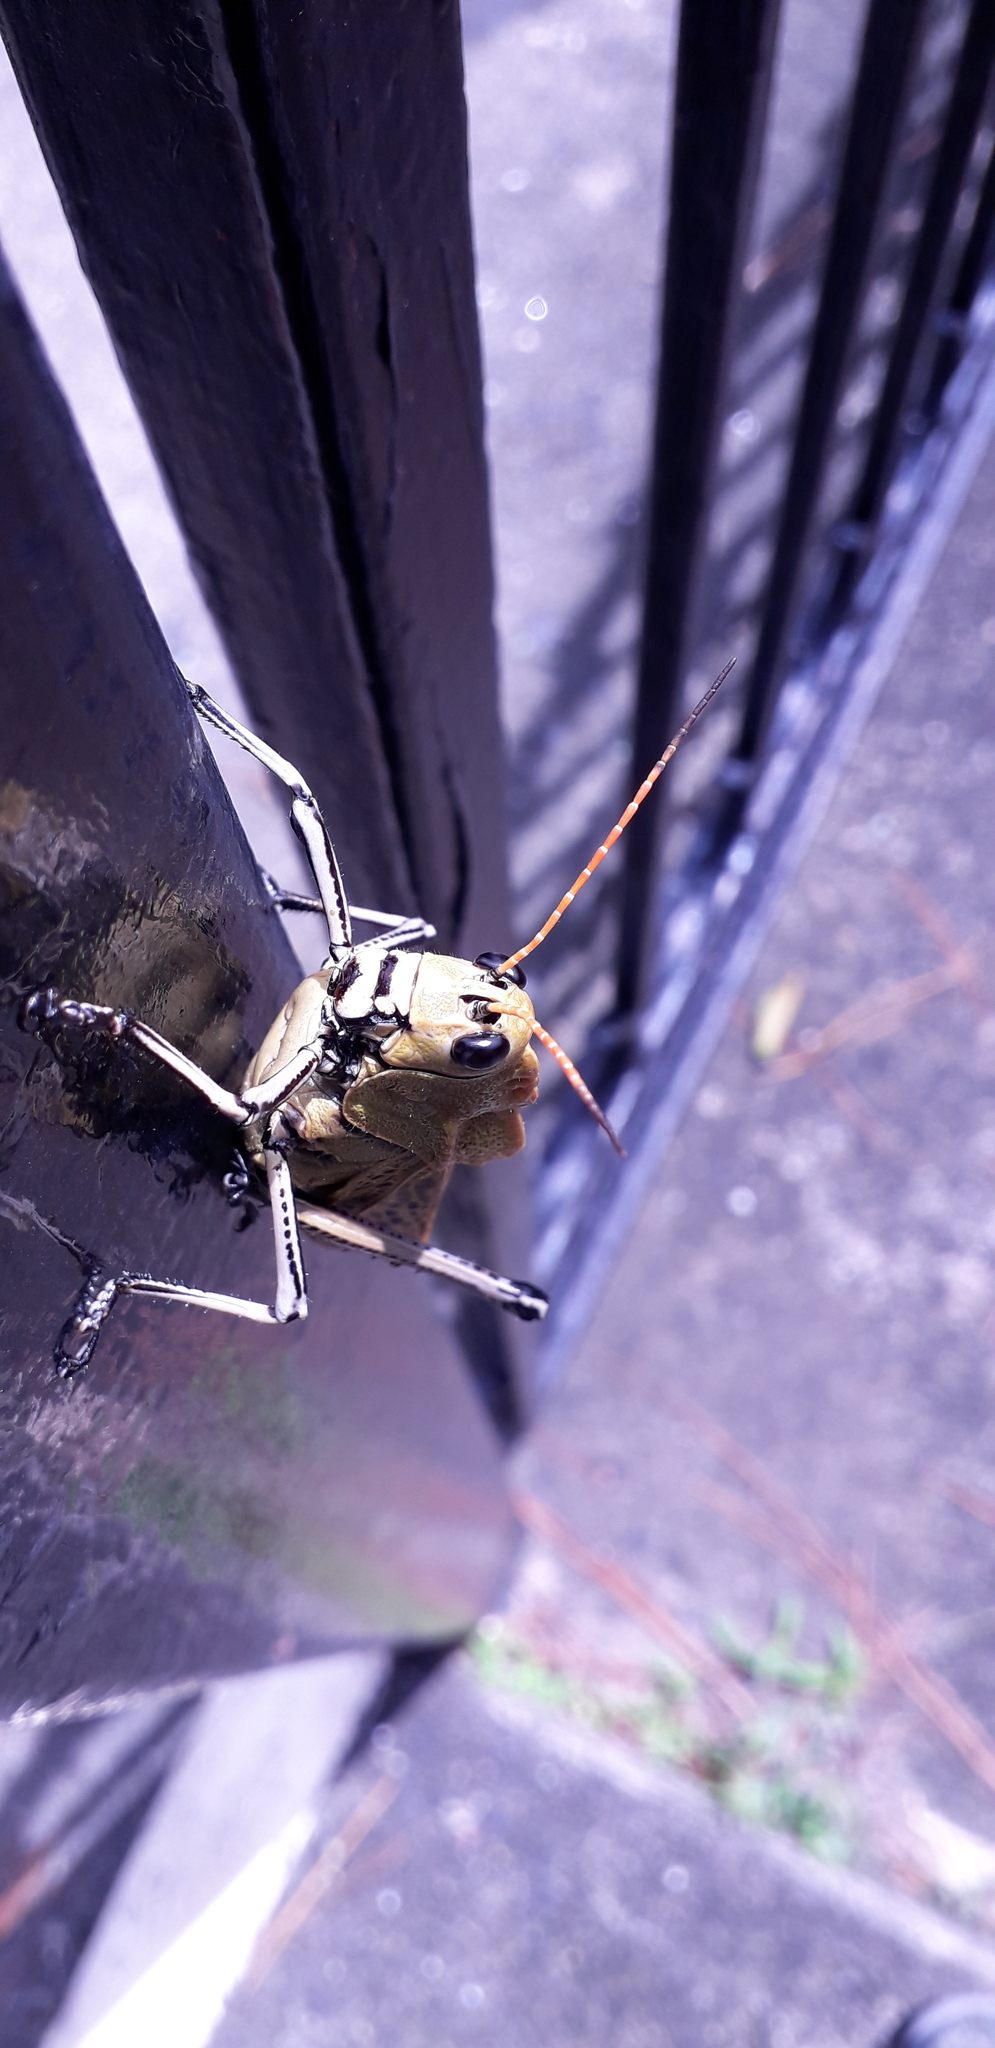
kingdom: Animalia
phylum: Arthropoda
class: Insecta
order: Orthoptera
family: Romaleidae
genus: Romalea
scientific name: Romalea
